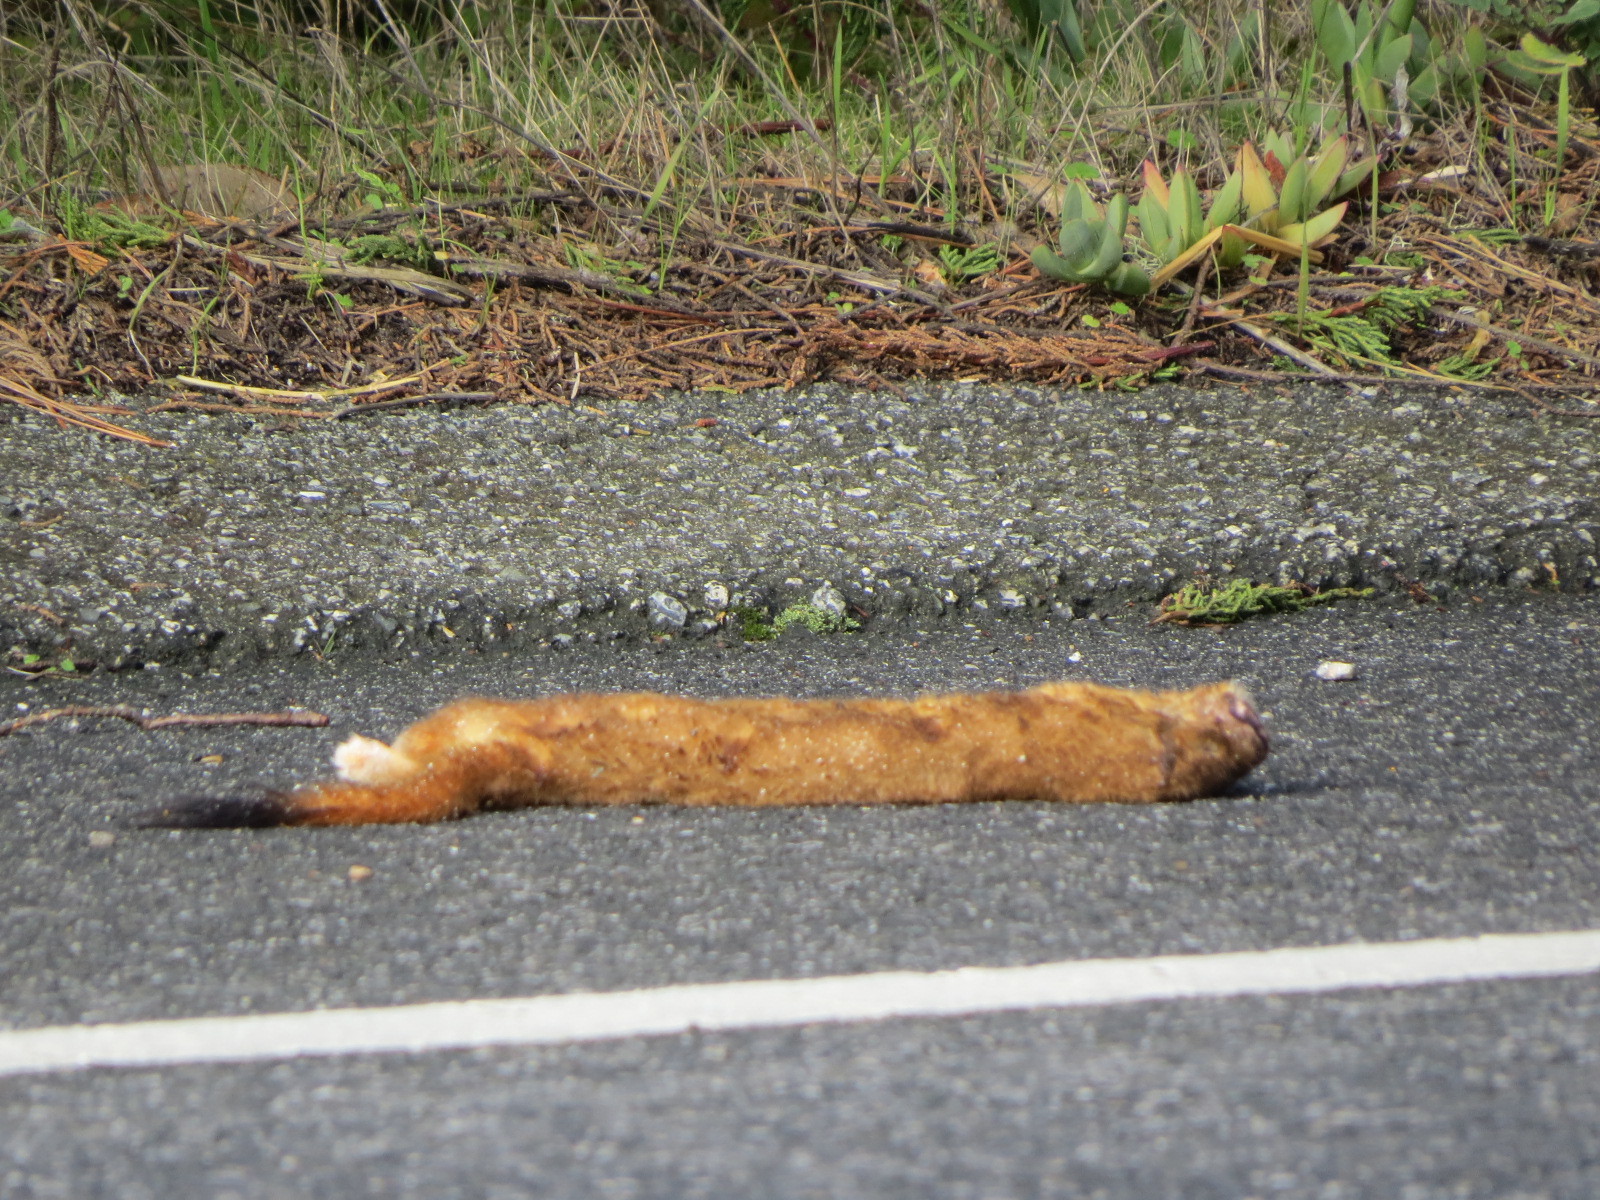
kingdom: Animalia
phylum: Chordata
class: Mammalia
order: Carnivora
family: Mustelidae
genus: Mustela
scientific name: Mustela
